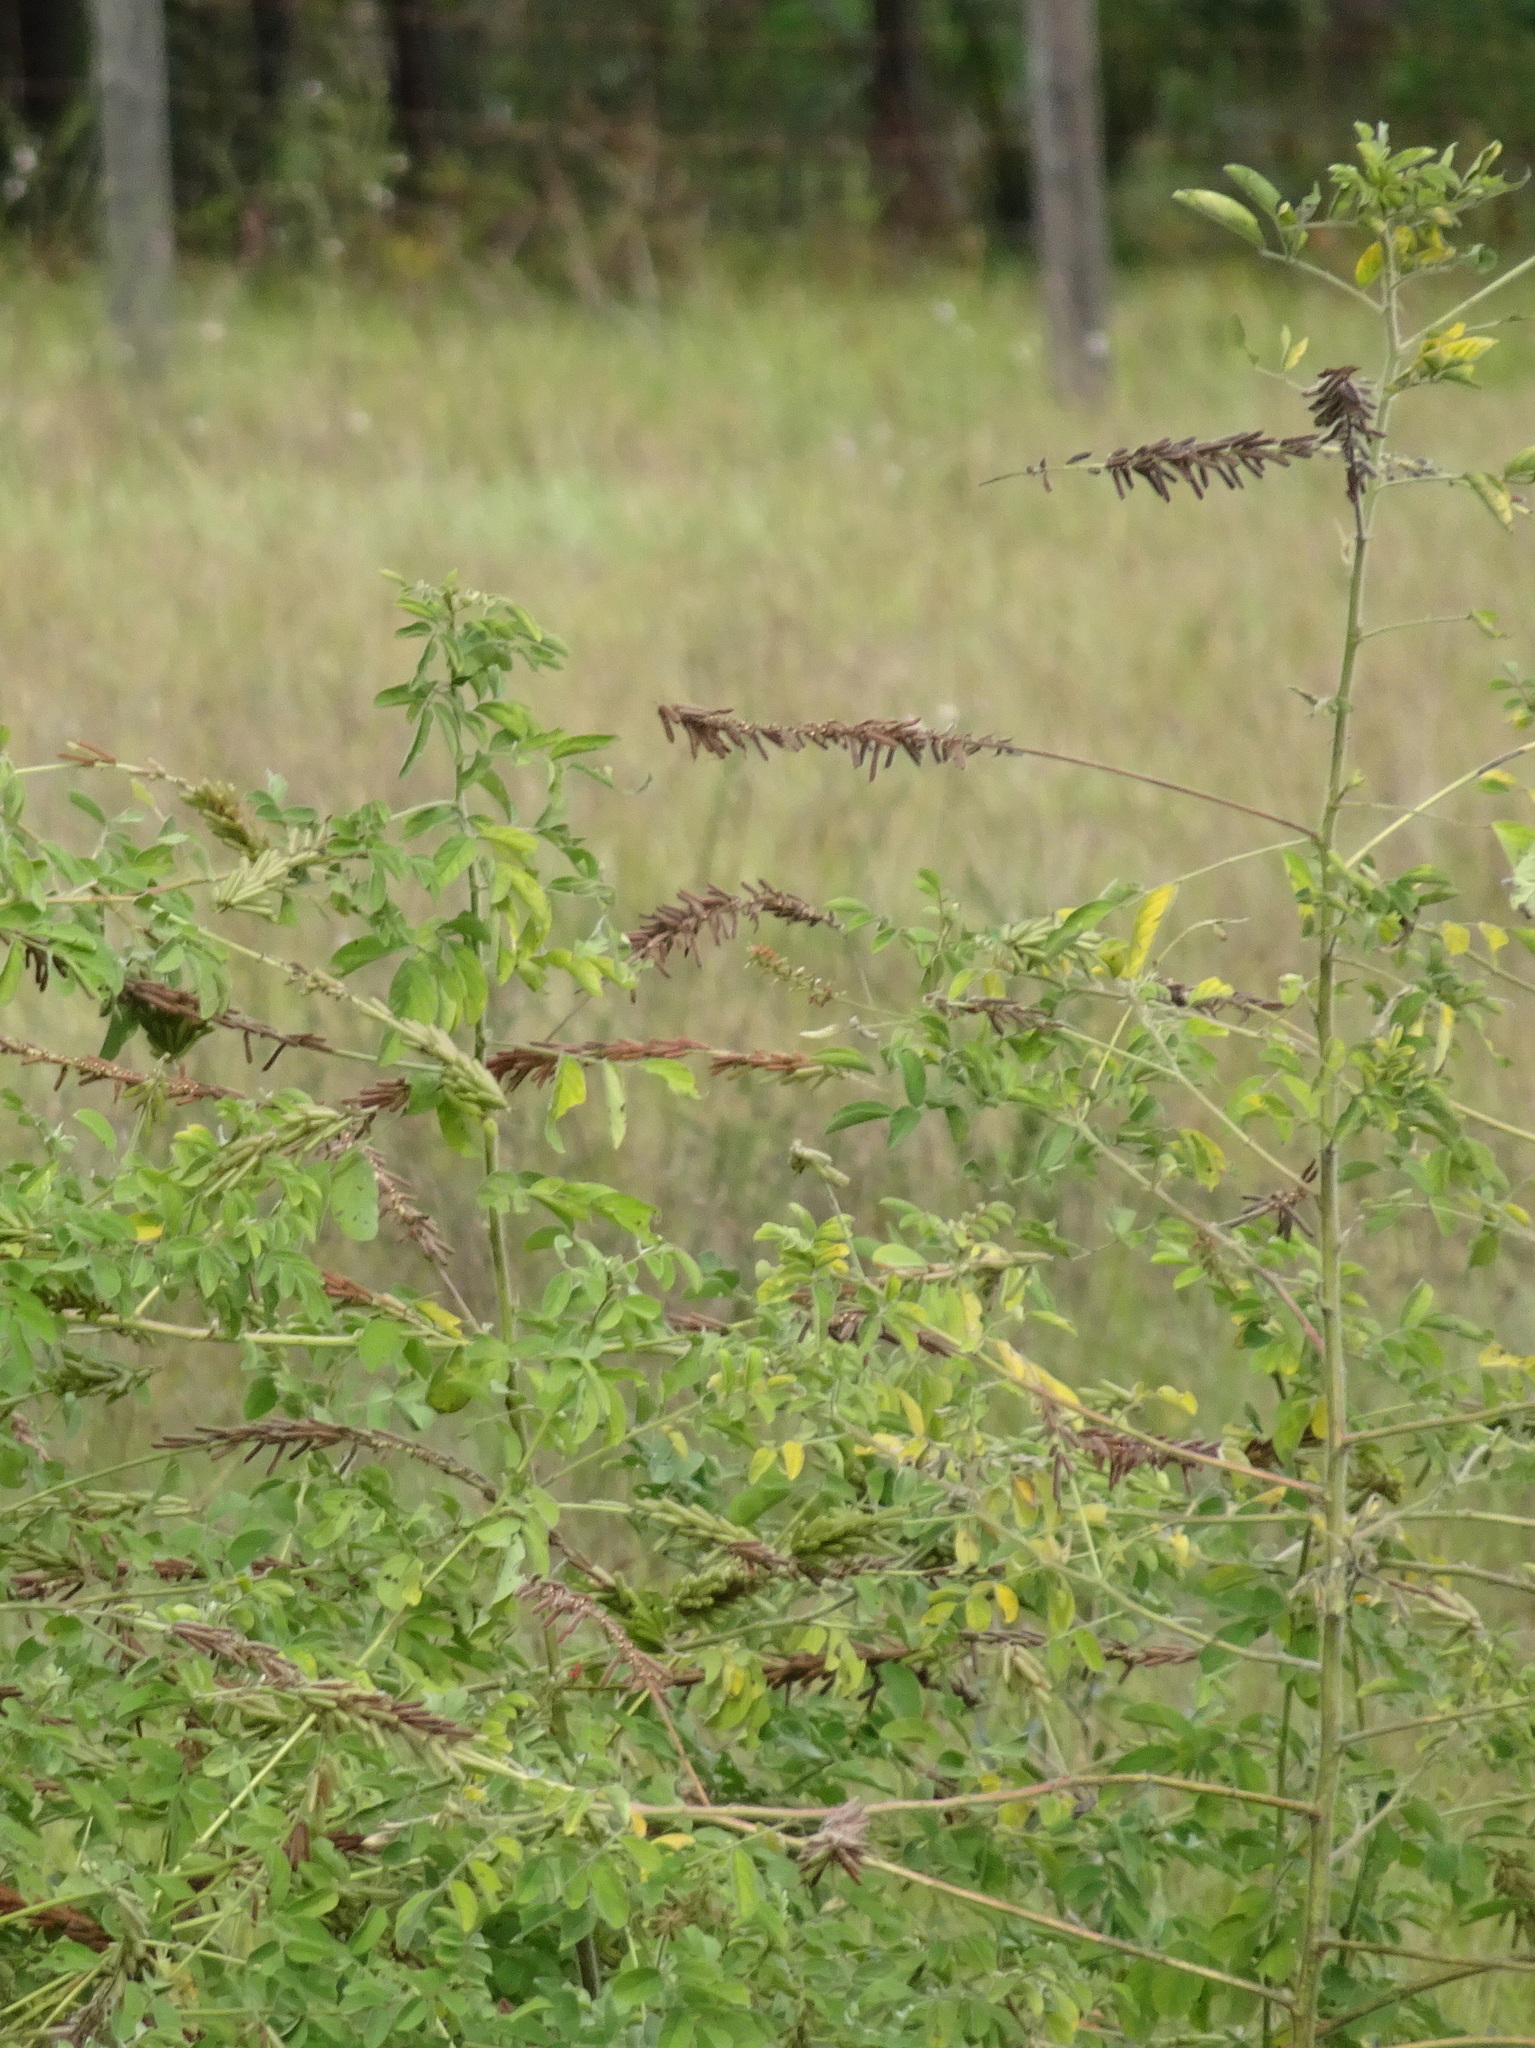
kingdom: Plantae
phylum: Tracheophyta
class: Magnoliopsida
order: Fabales
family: Fabaceae
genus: Indigofera
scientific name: Indigofera hirsuta
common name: Hairy indigo
